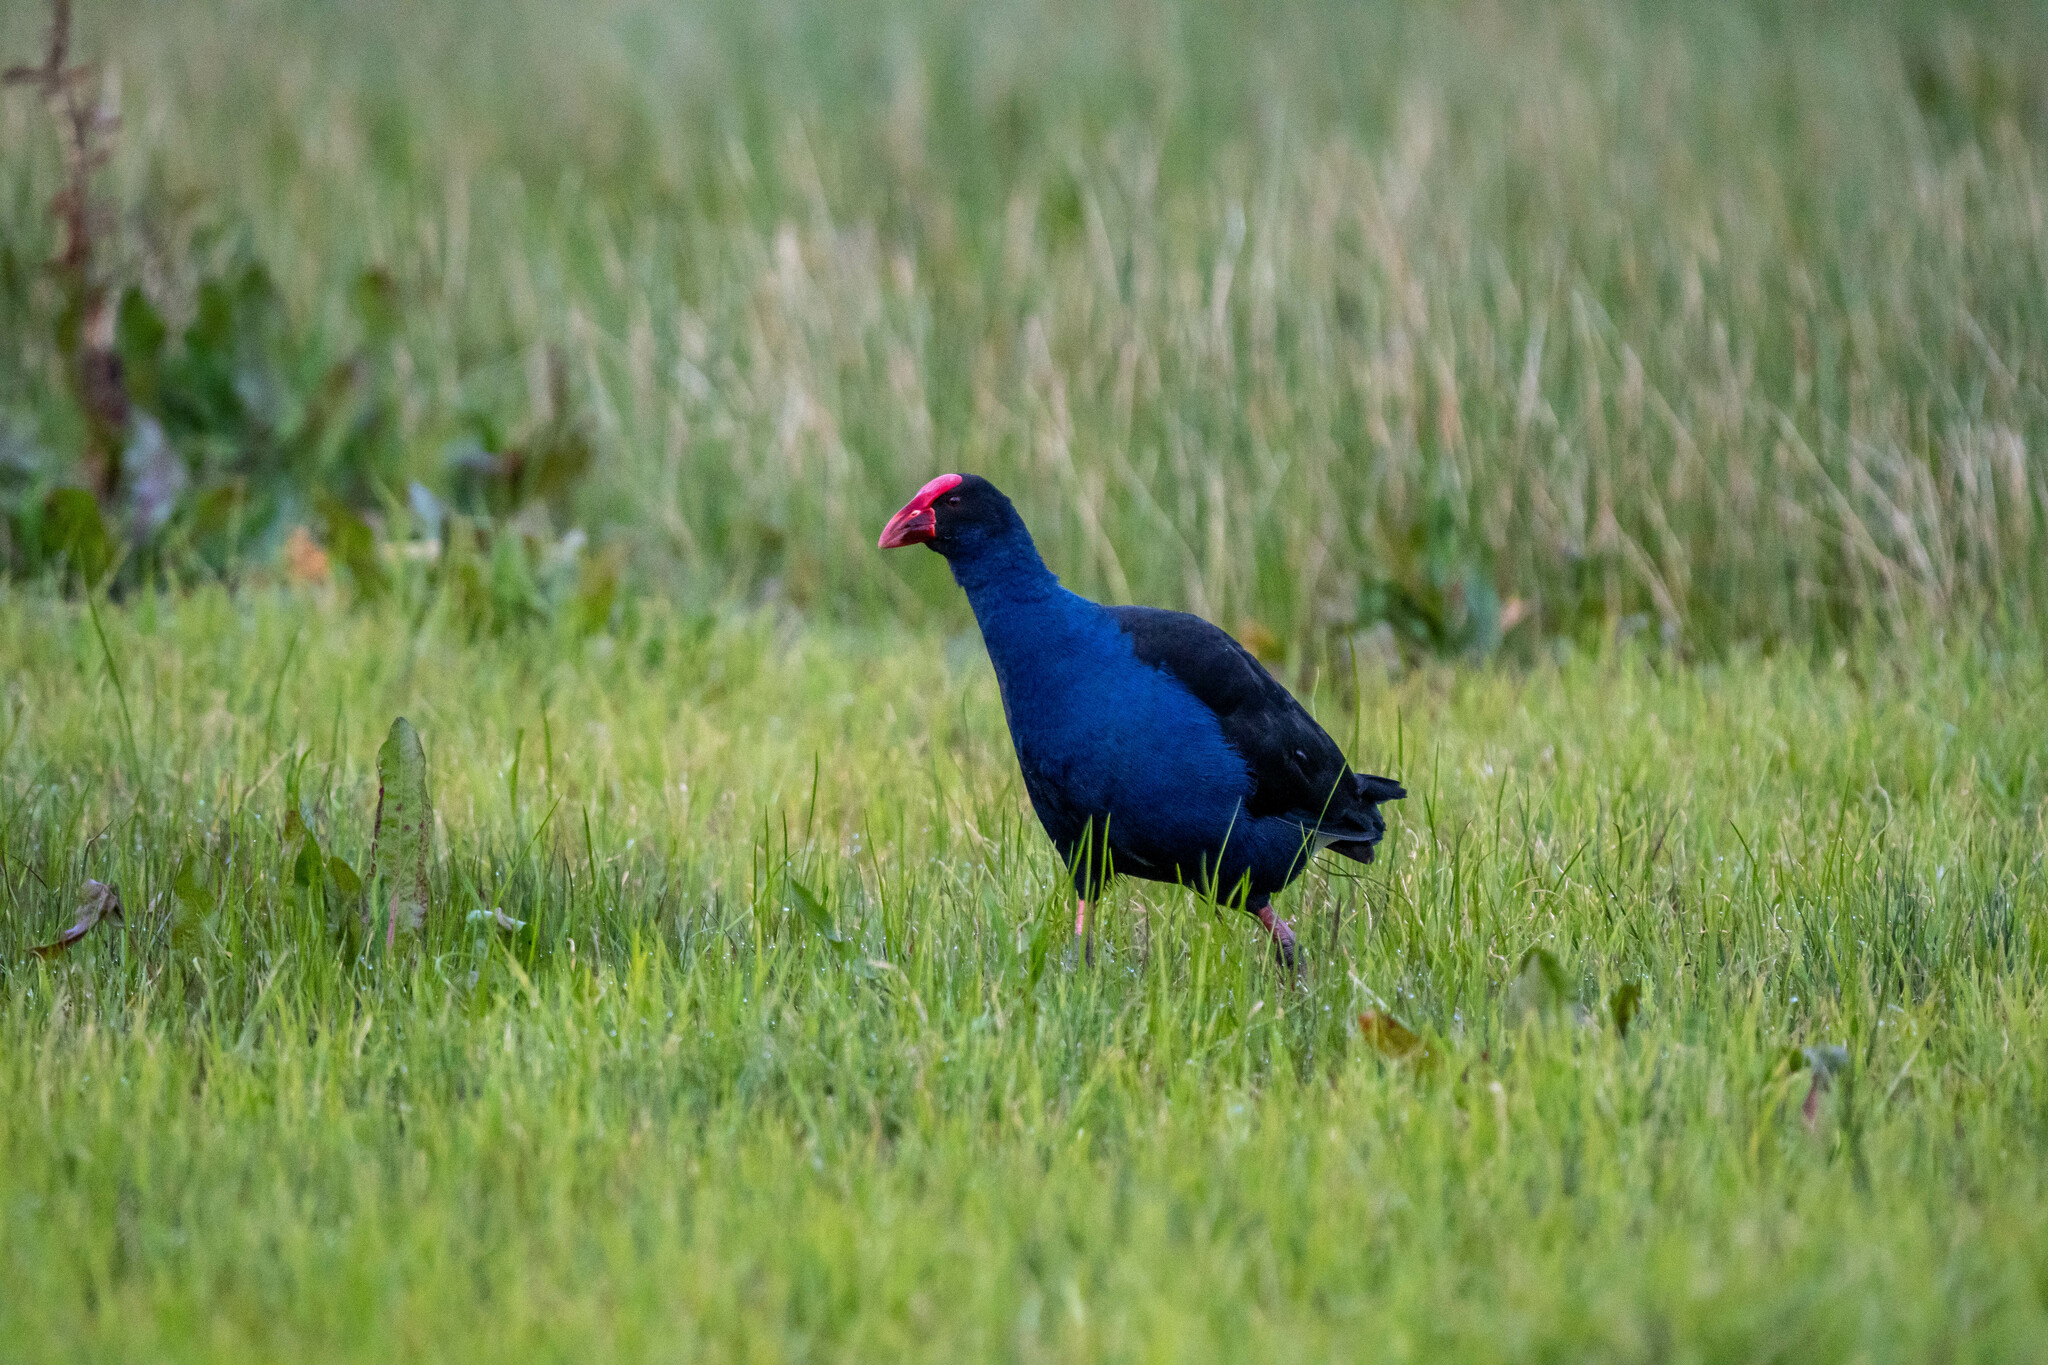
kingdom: Animalia
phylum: Chordata
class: Aves
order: Gruiformes
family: Rallidae
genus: Porphyrio
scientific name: Porphyrio melanotus
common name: Australasian swamphen
